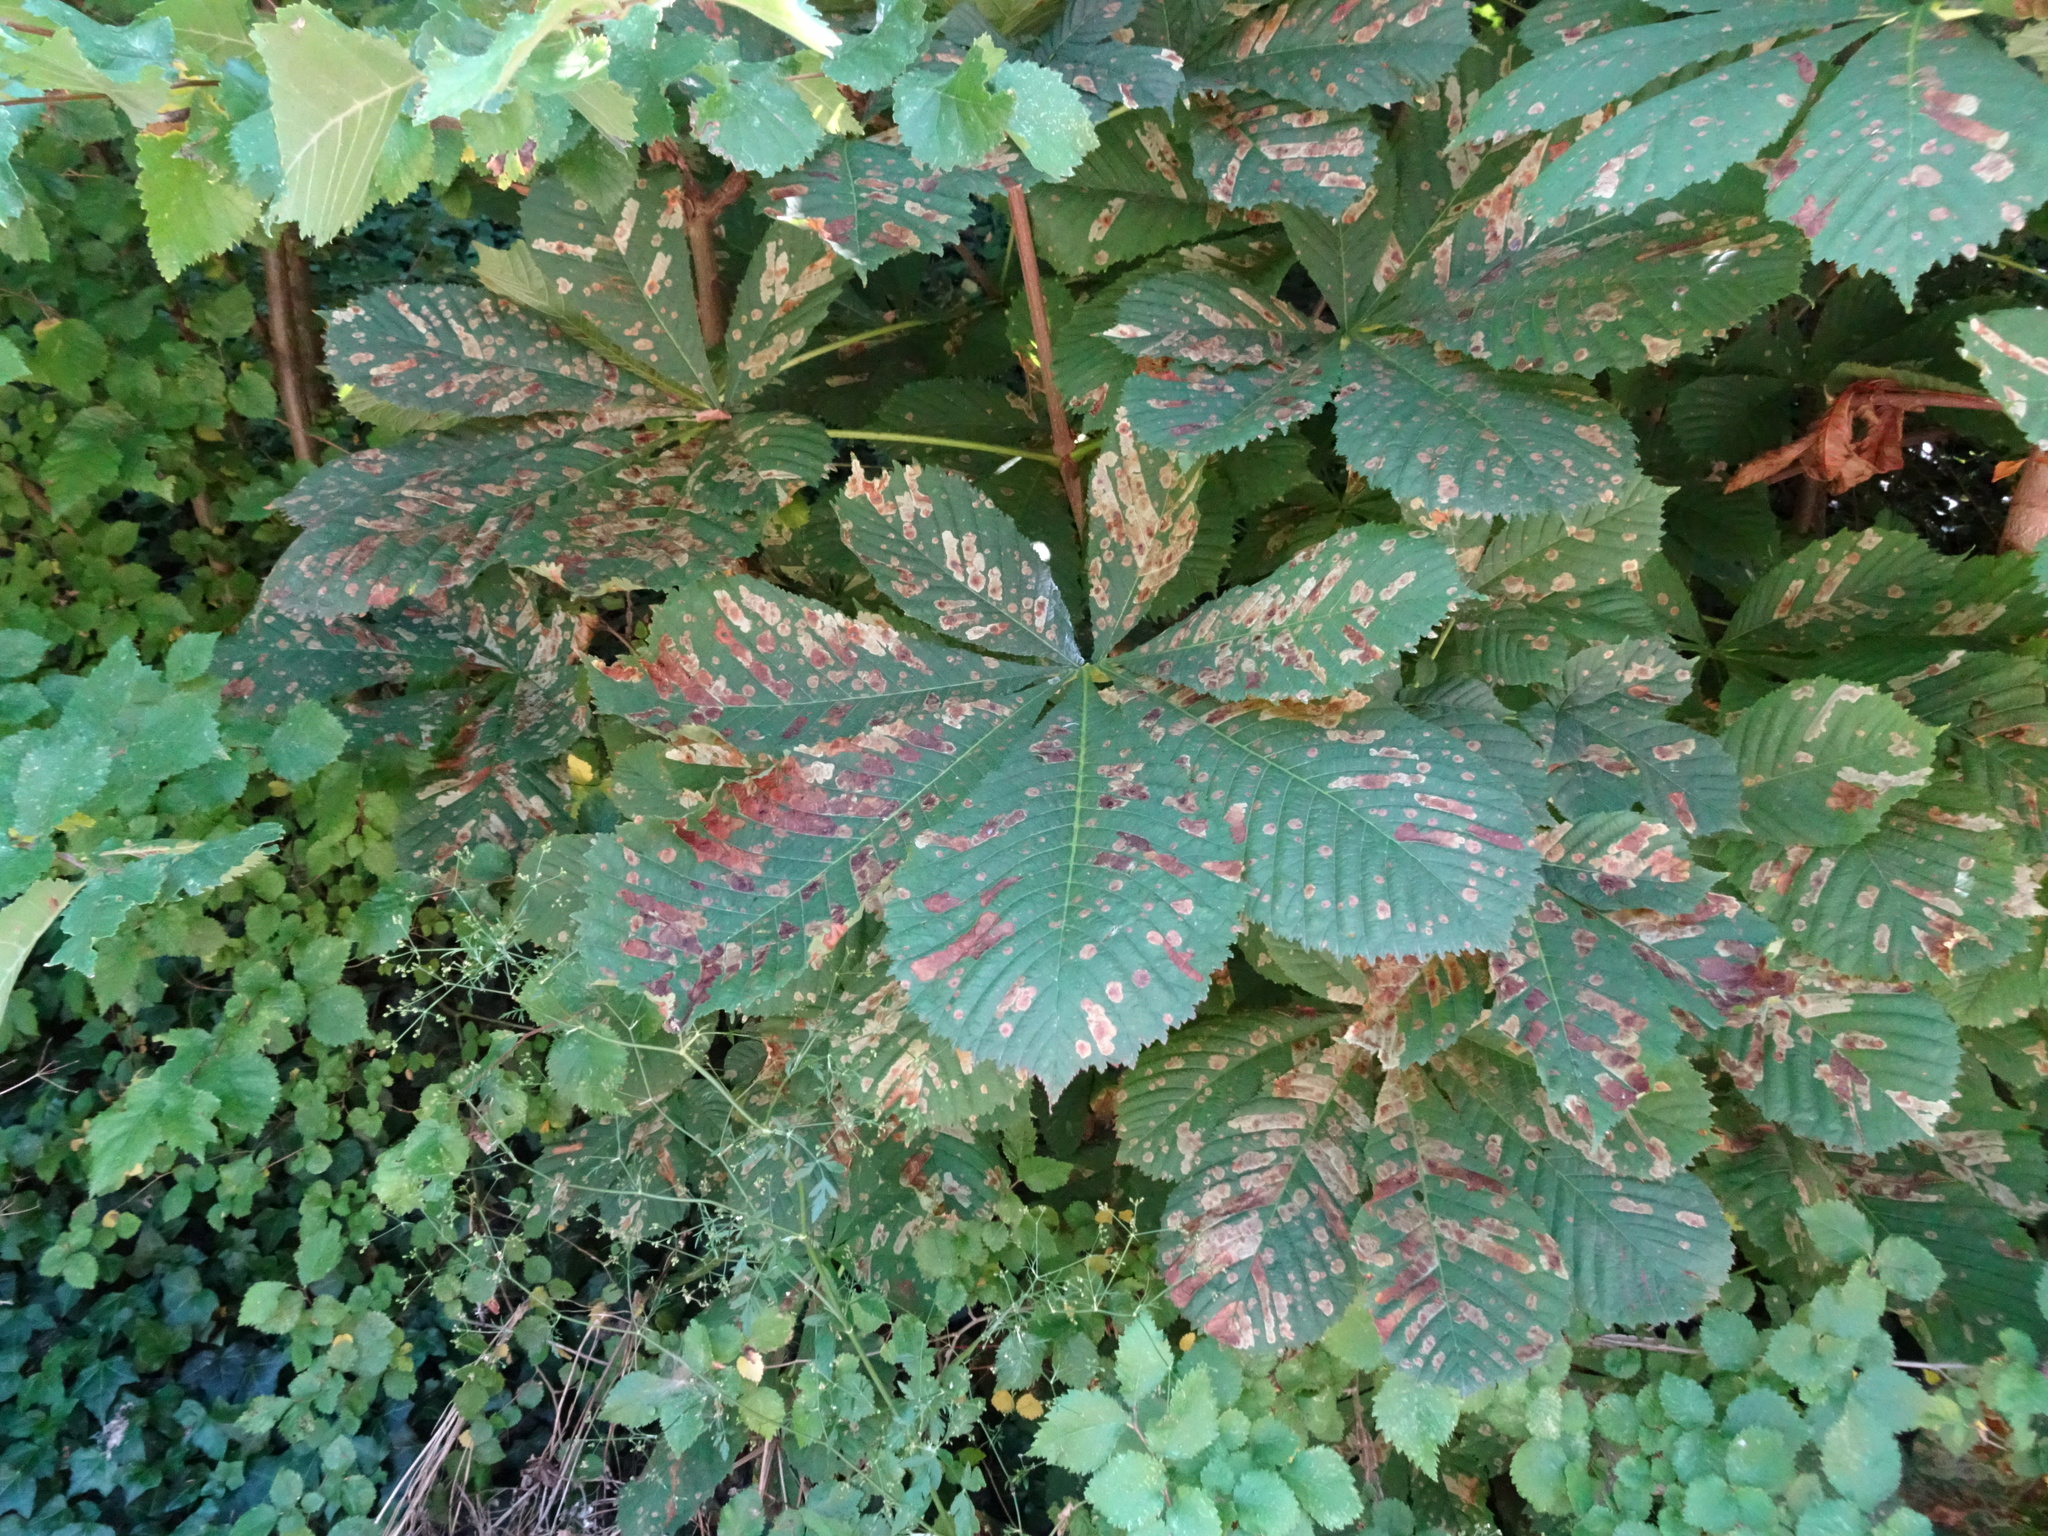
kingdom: Plantae
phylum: Tracheophyta
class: Magnoliopsida
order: Sapindales
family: Sapindaceae
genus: Aesculus
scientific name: Aesculus hippocastanum
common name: Horse-chestnut
